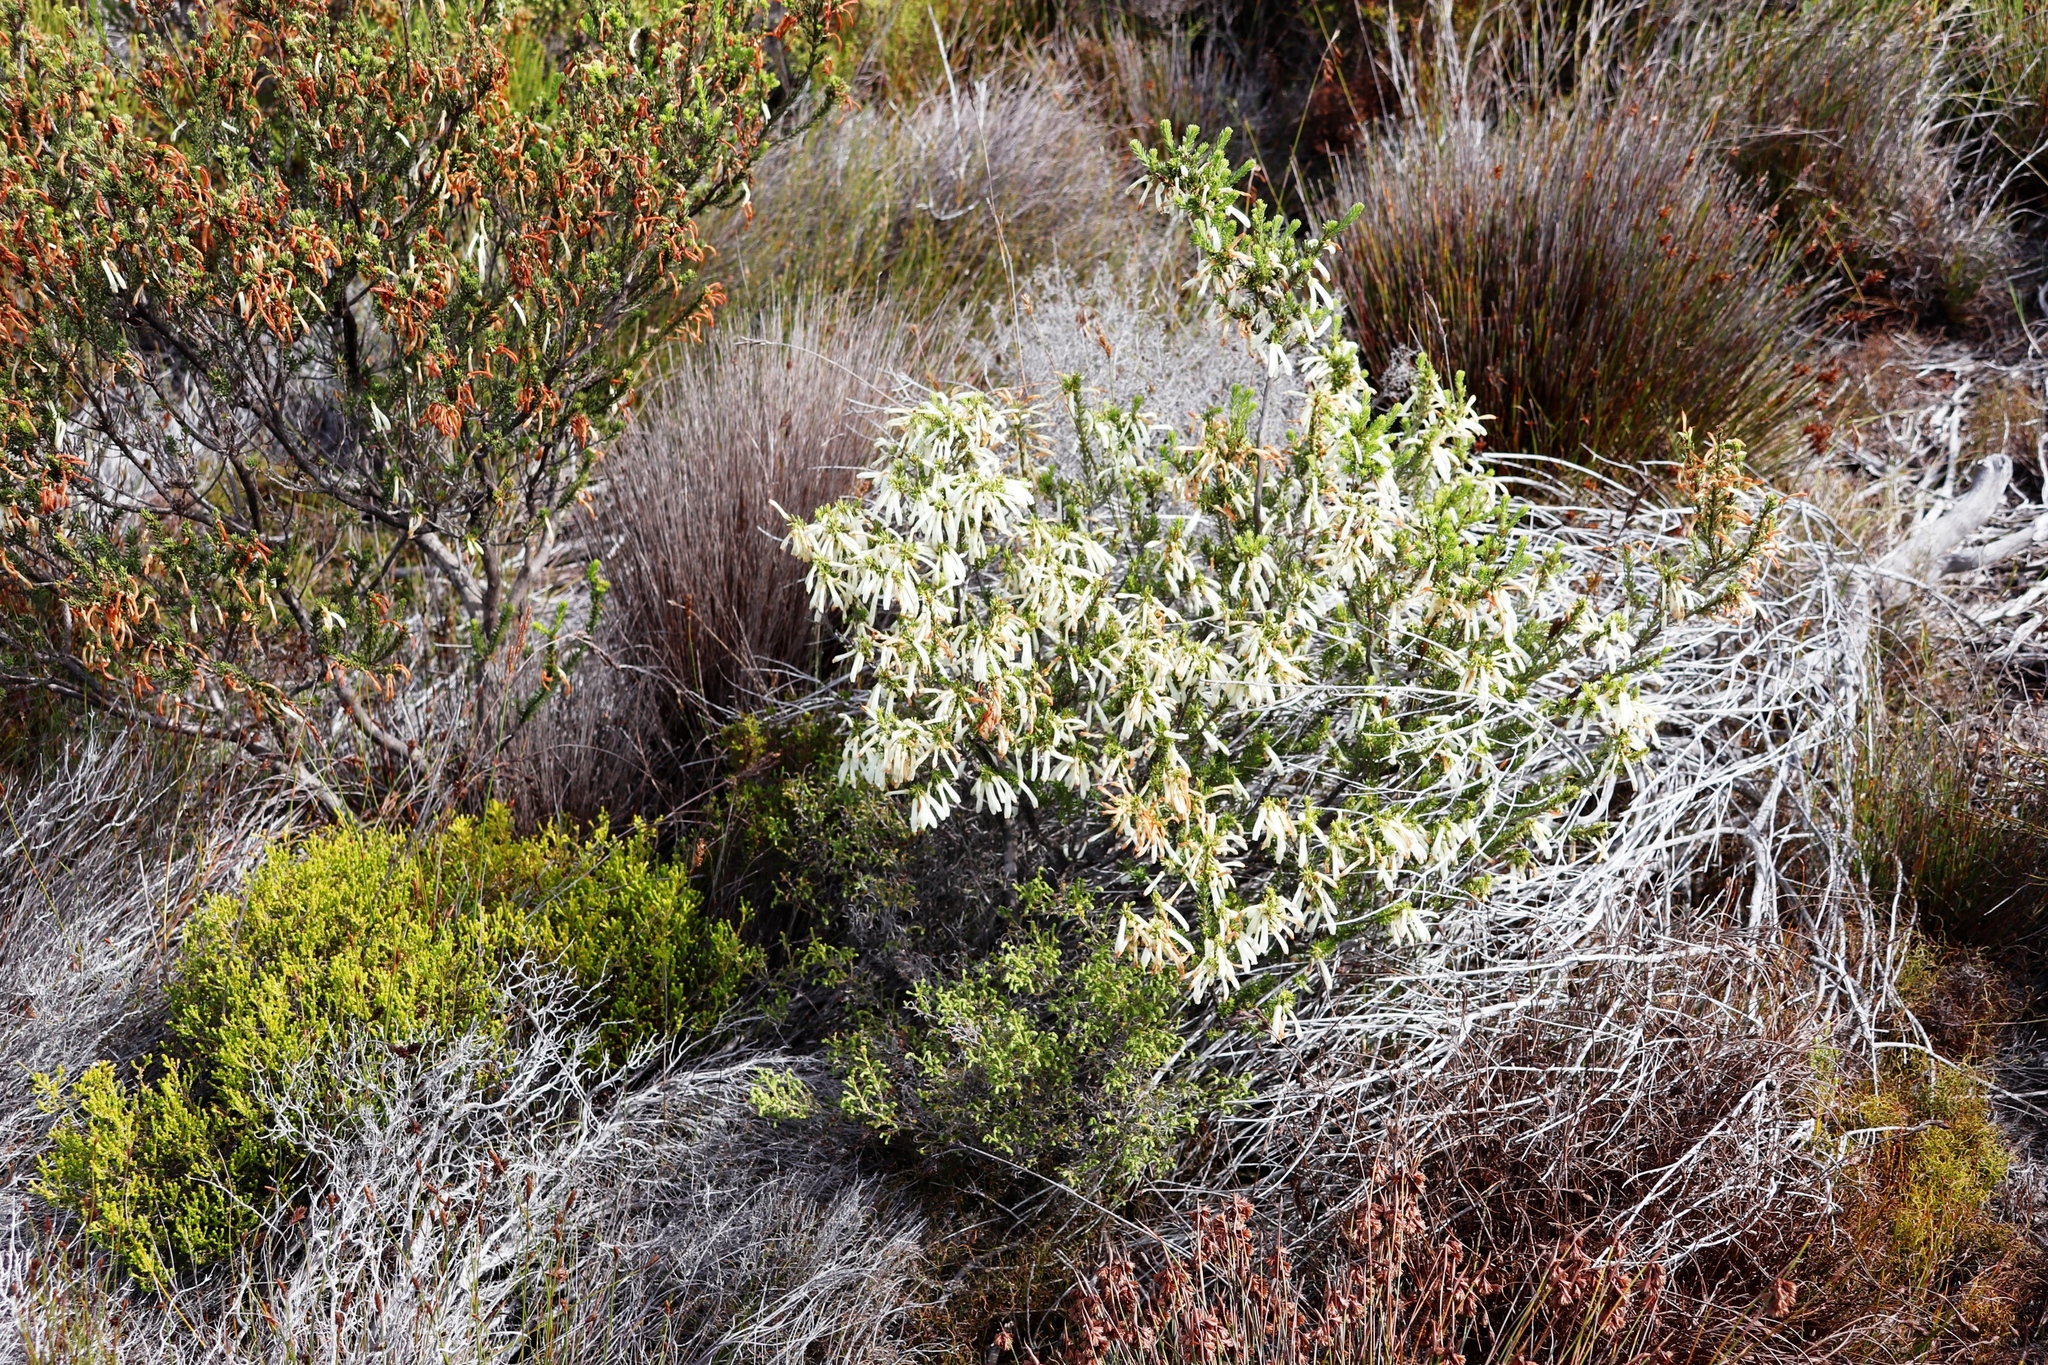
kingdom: Plantae
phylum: Tracheophyta
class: Magnoliopsida
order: Ericales
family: Ericaceae
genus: Erica
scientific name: Erica mammosa
